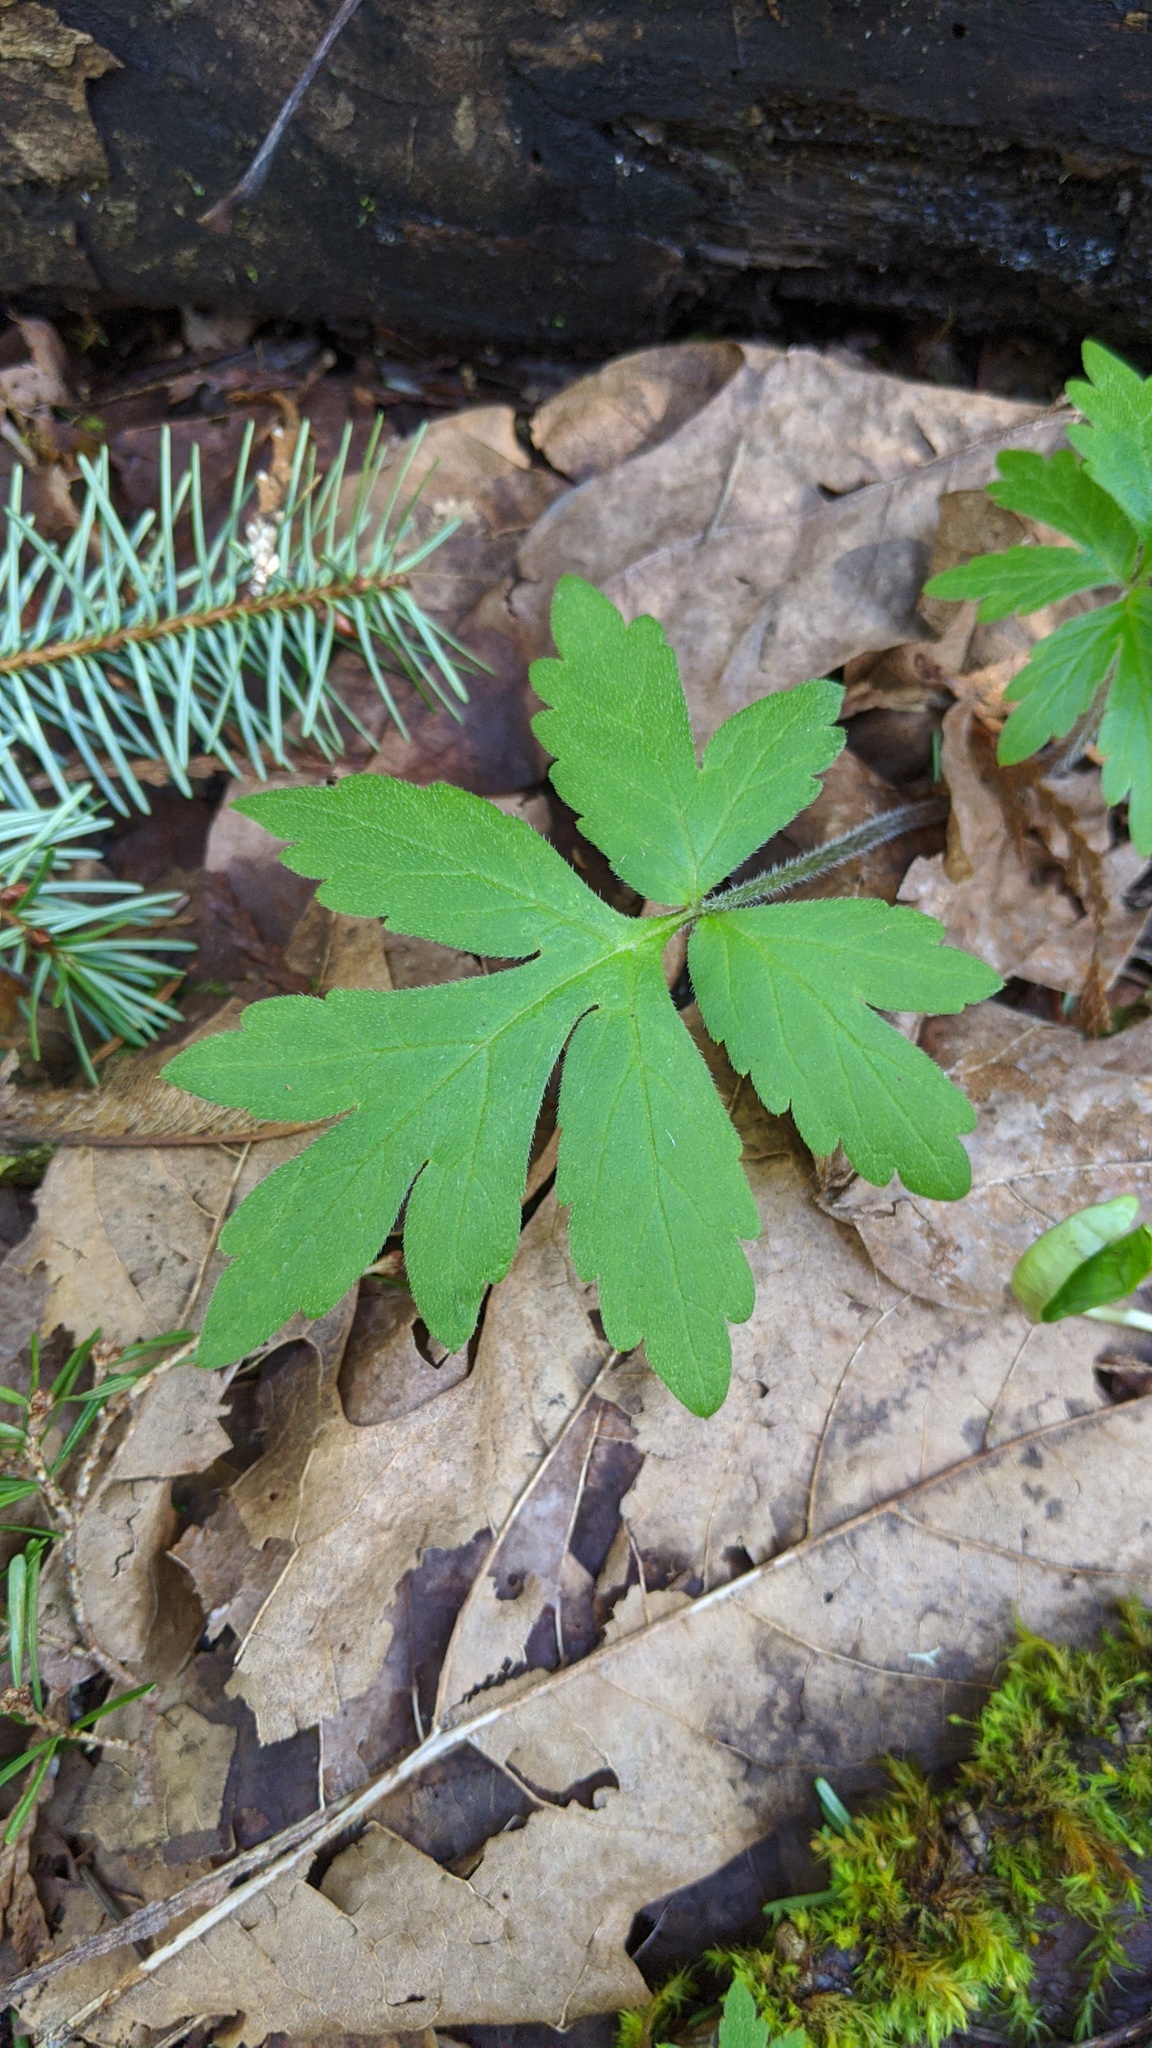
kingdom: Plantae
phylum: Tracheophyta
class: Magnoliopsida
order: Boraginales
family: Hydrophyllaceae
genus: Hydrophyllum
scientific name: Hydrophyllum tenuipes
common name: Pacific waterleaf
